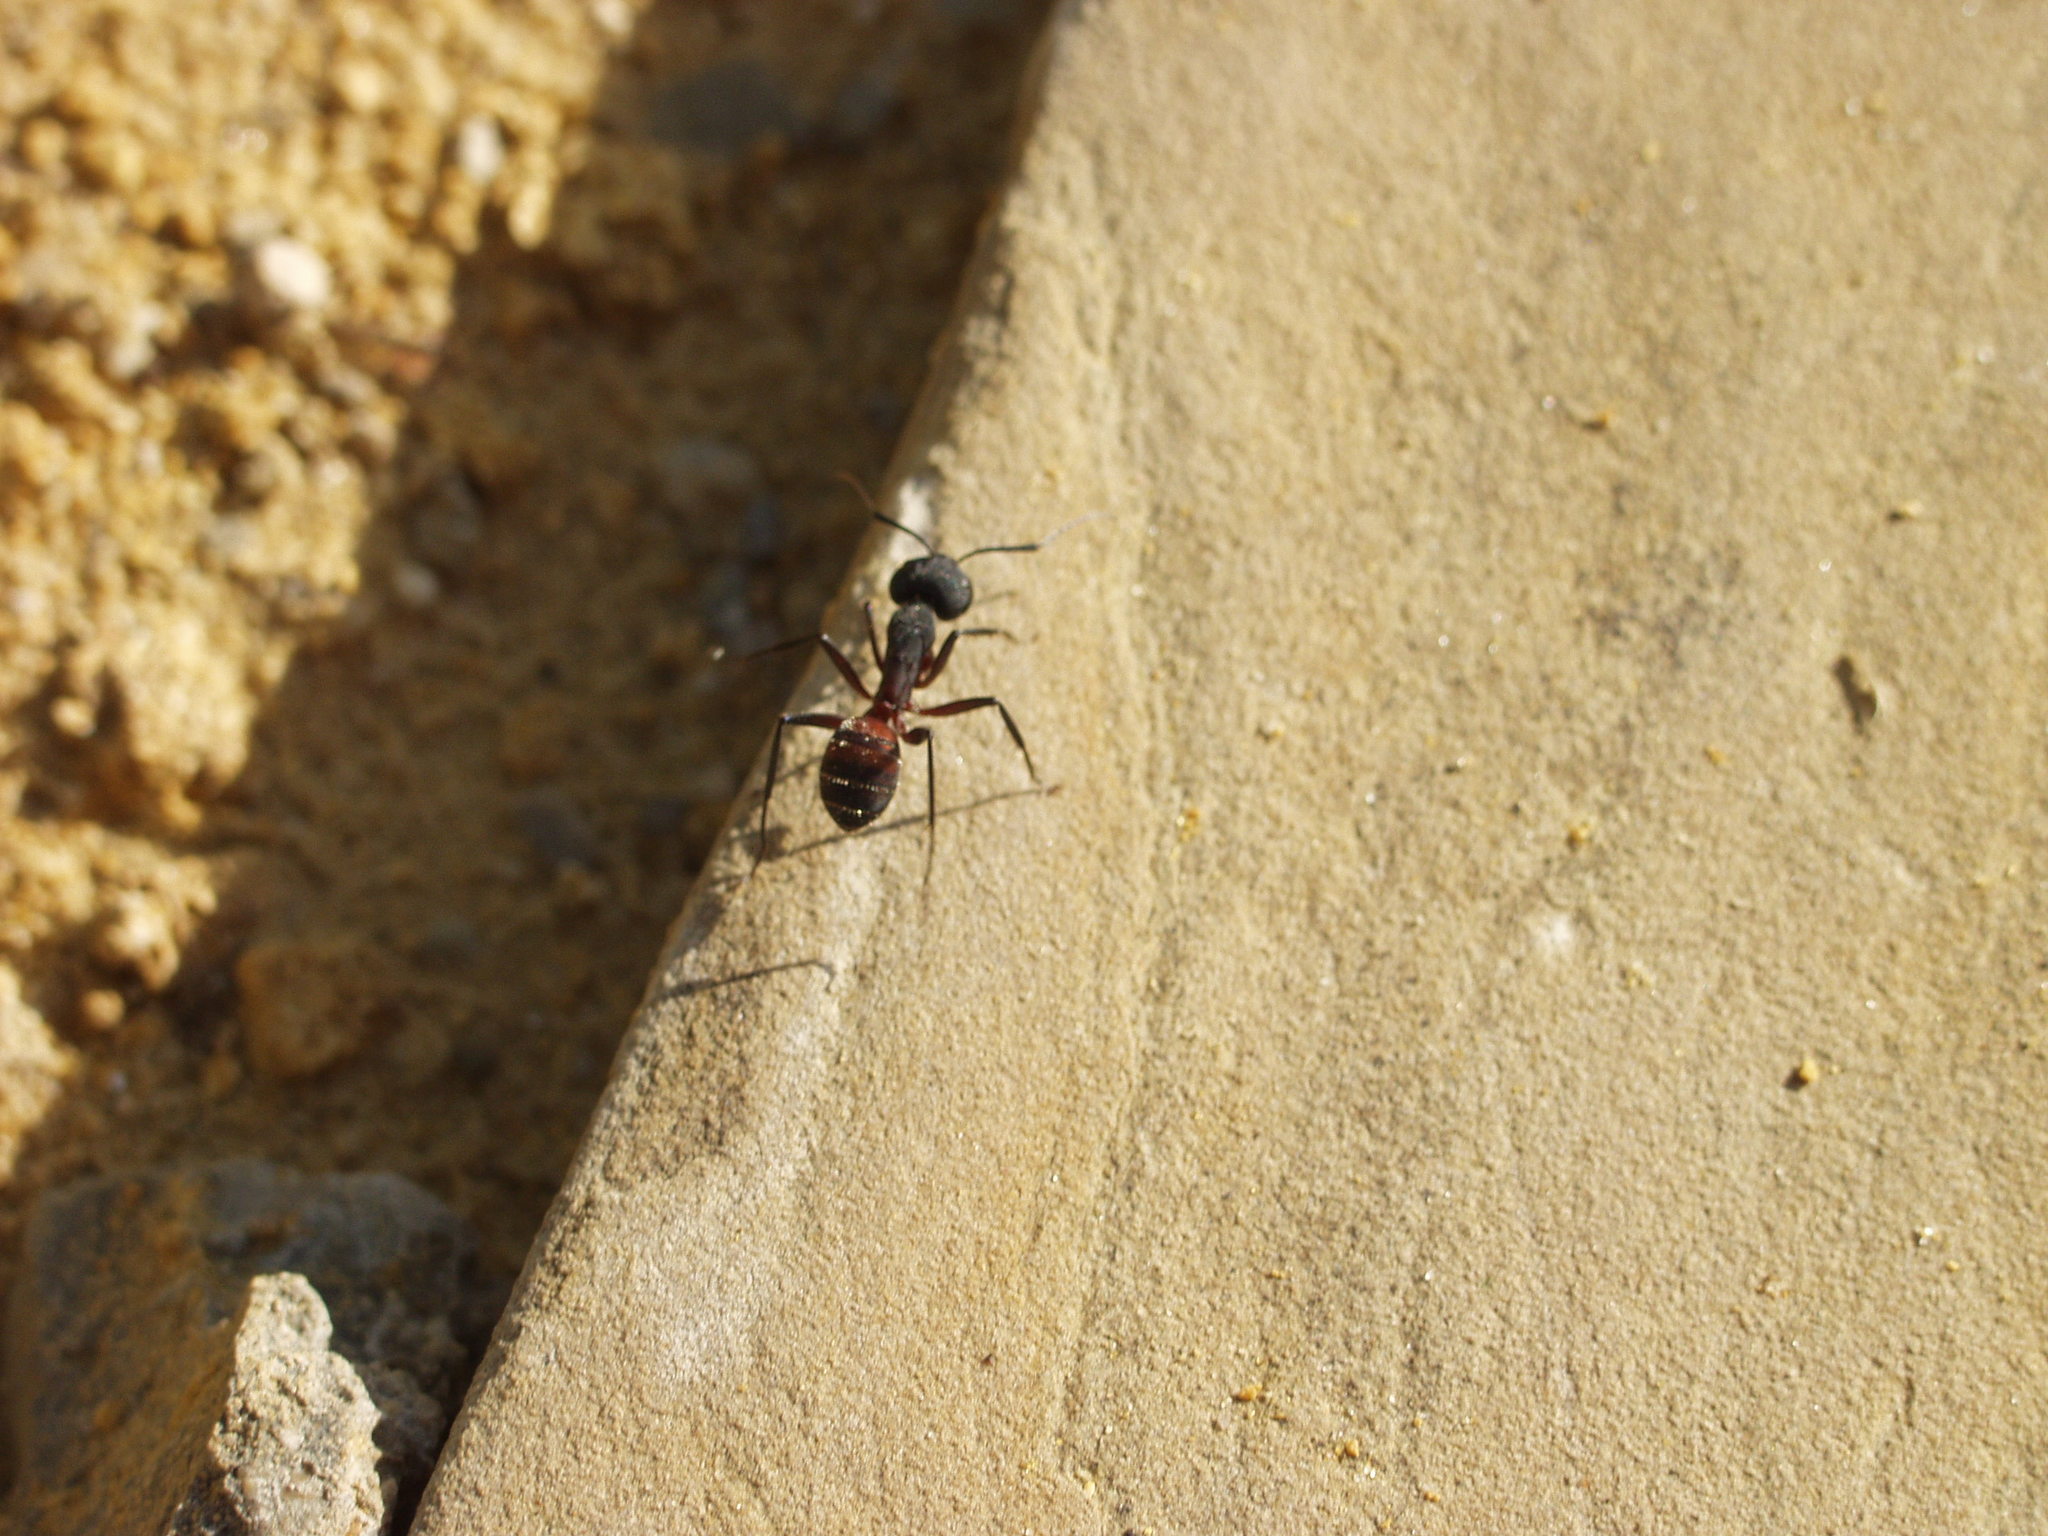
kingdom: Animalia
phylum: Arthropoda
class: Insecta
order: Hymenoptera
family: Formicidae
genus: Camponotus
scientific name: Camponotus cruentatus
